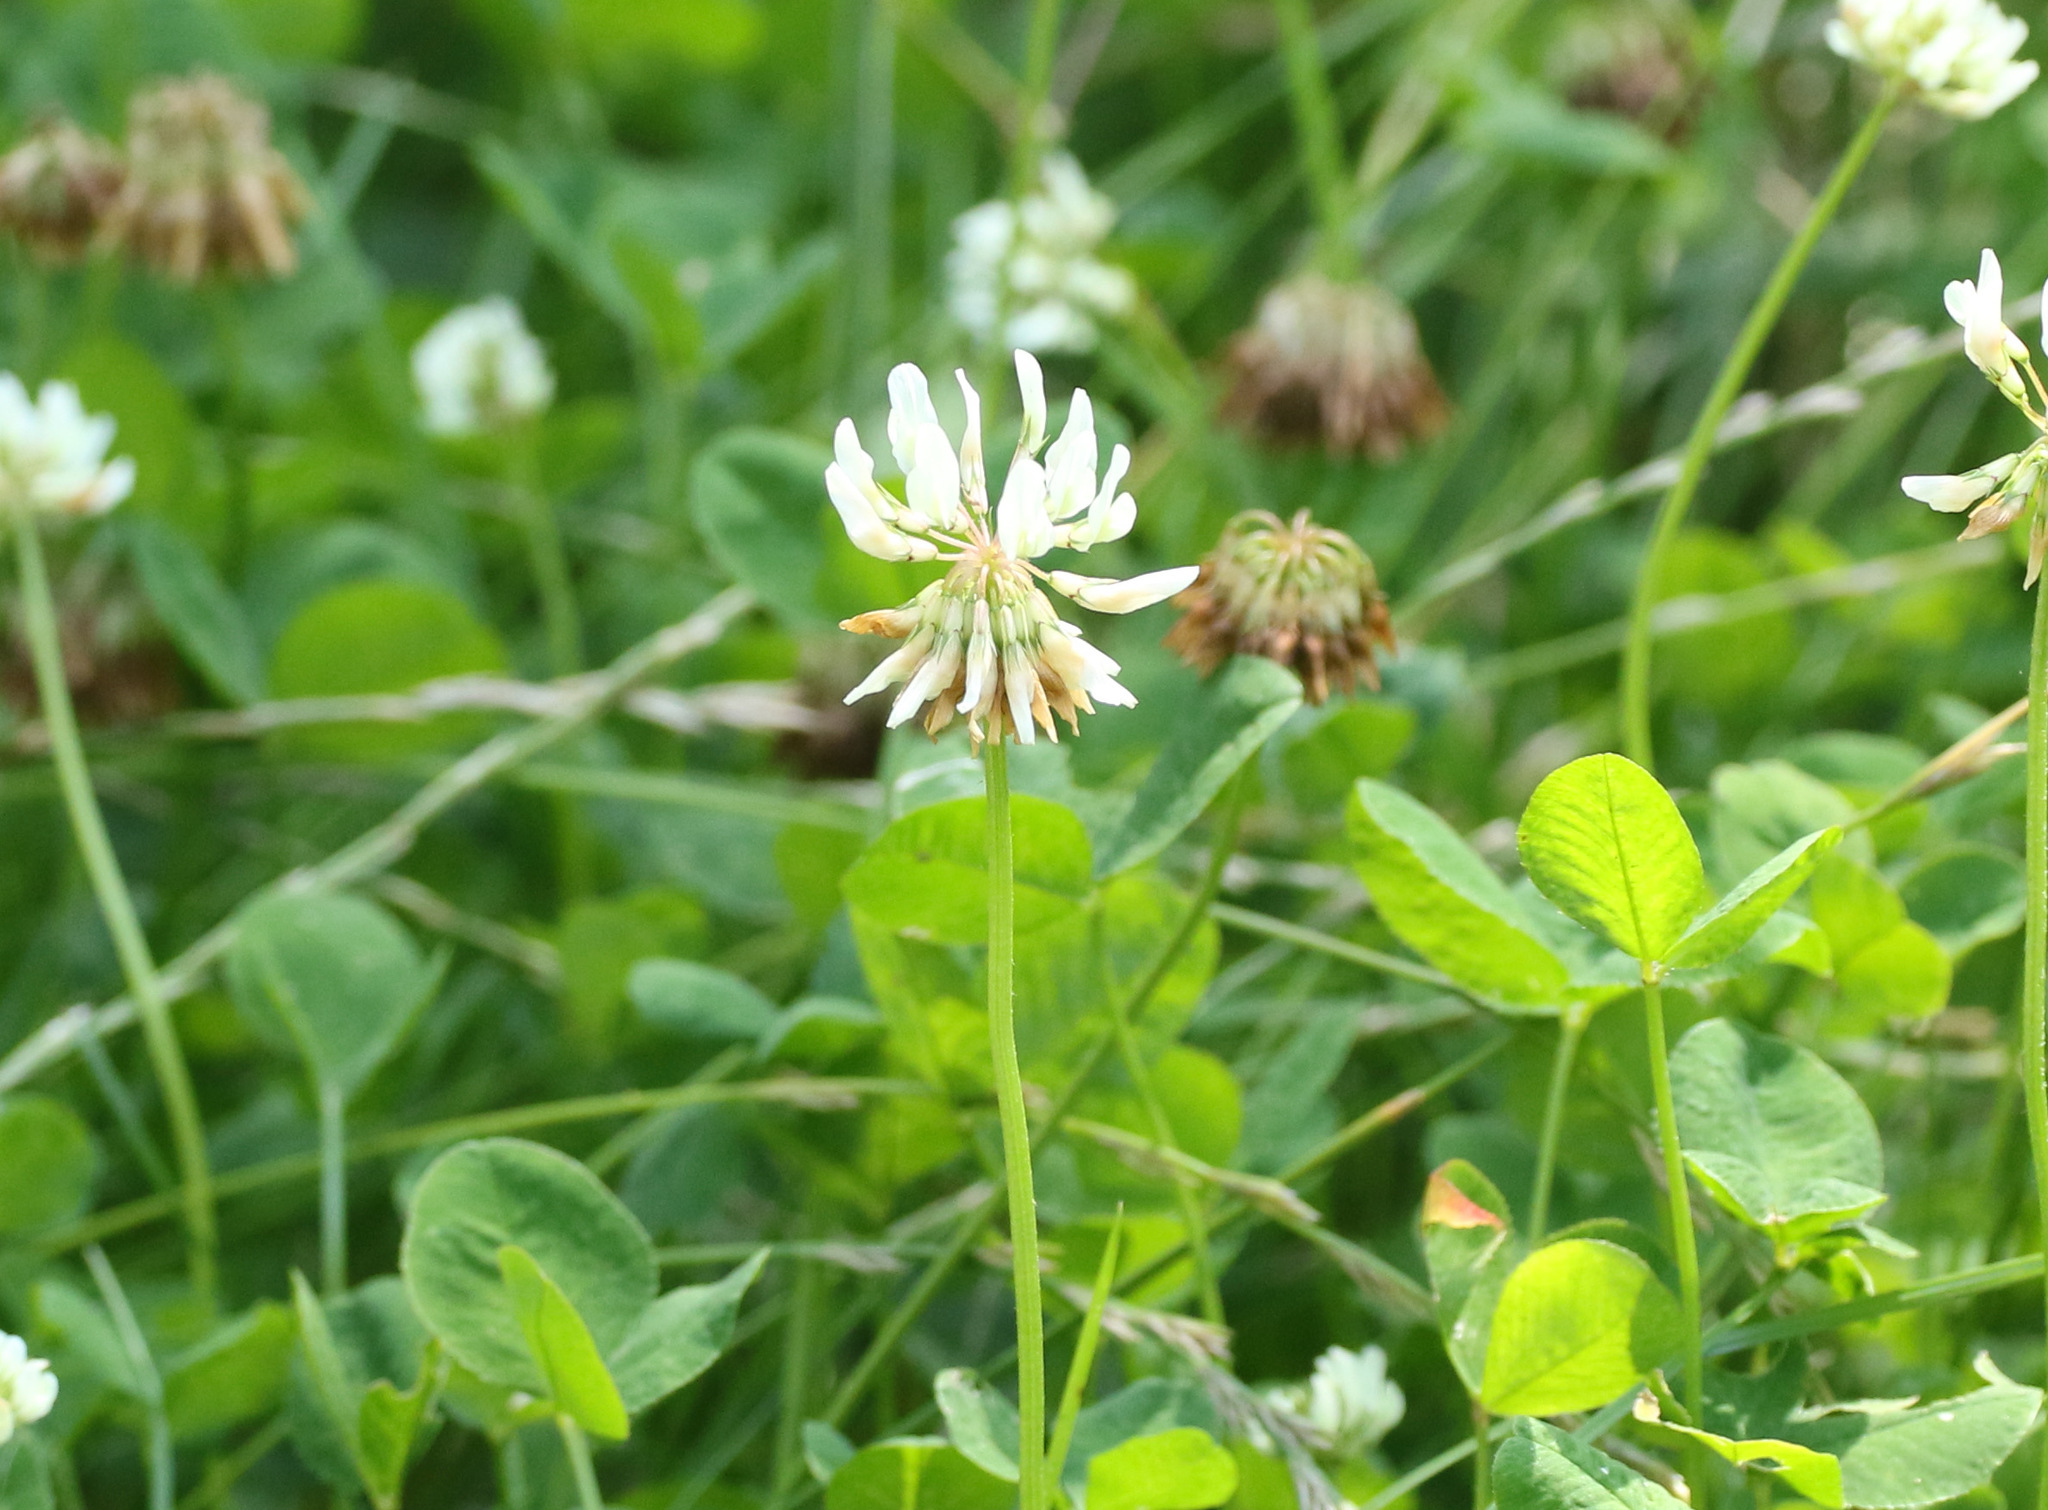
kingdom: Plantae
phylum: Tracheophyta
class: Magnoliopsida
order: Fabales
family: Fabaceae
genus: Trifolium
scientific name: Trifolium repens
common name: White clover
